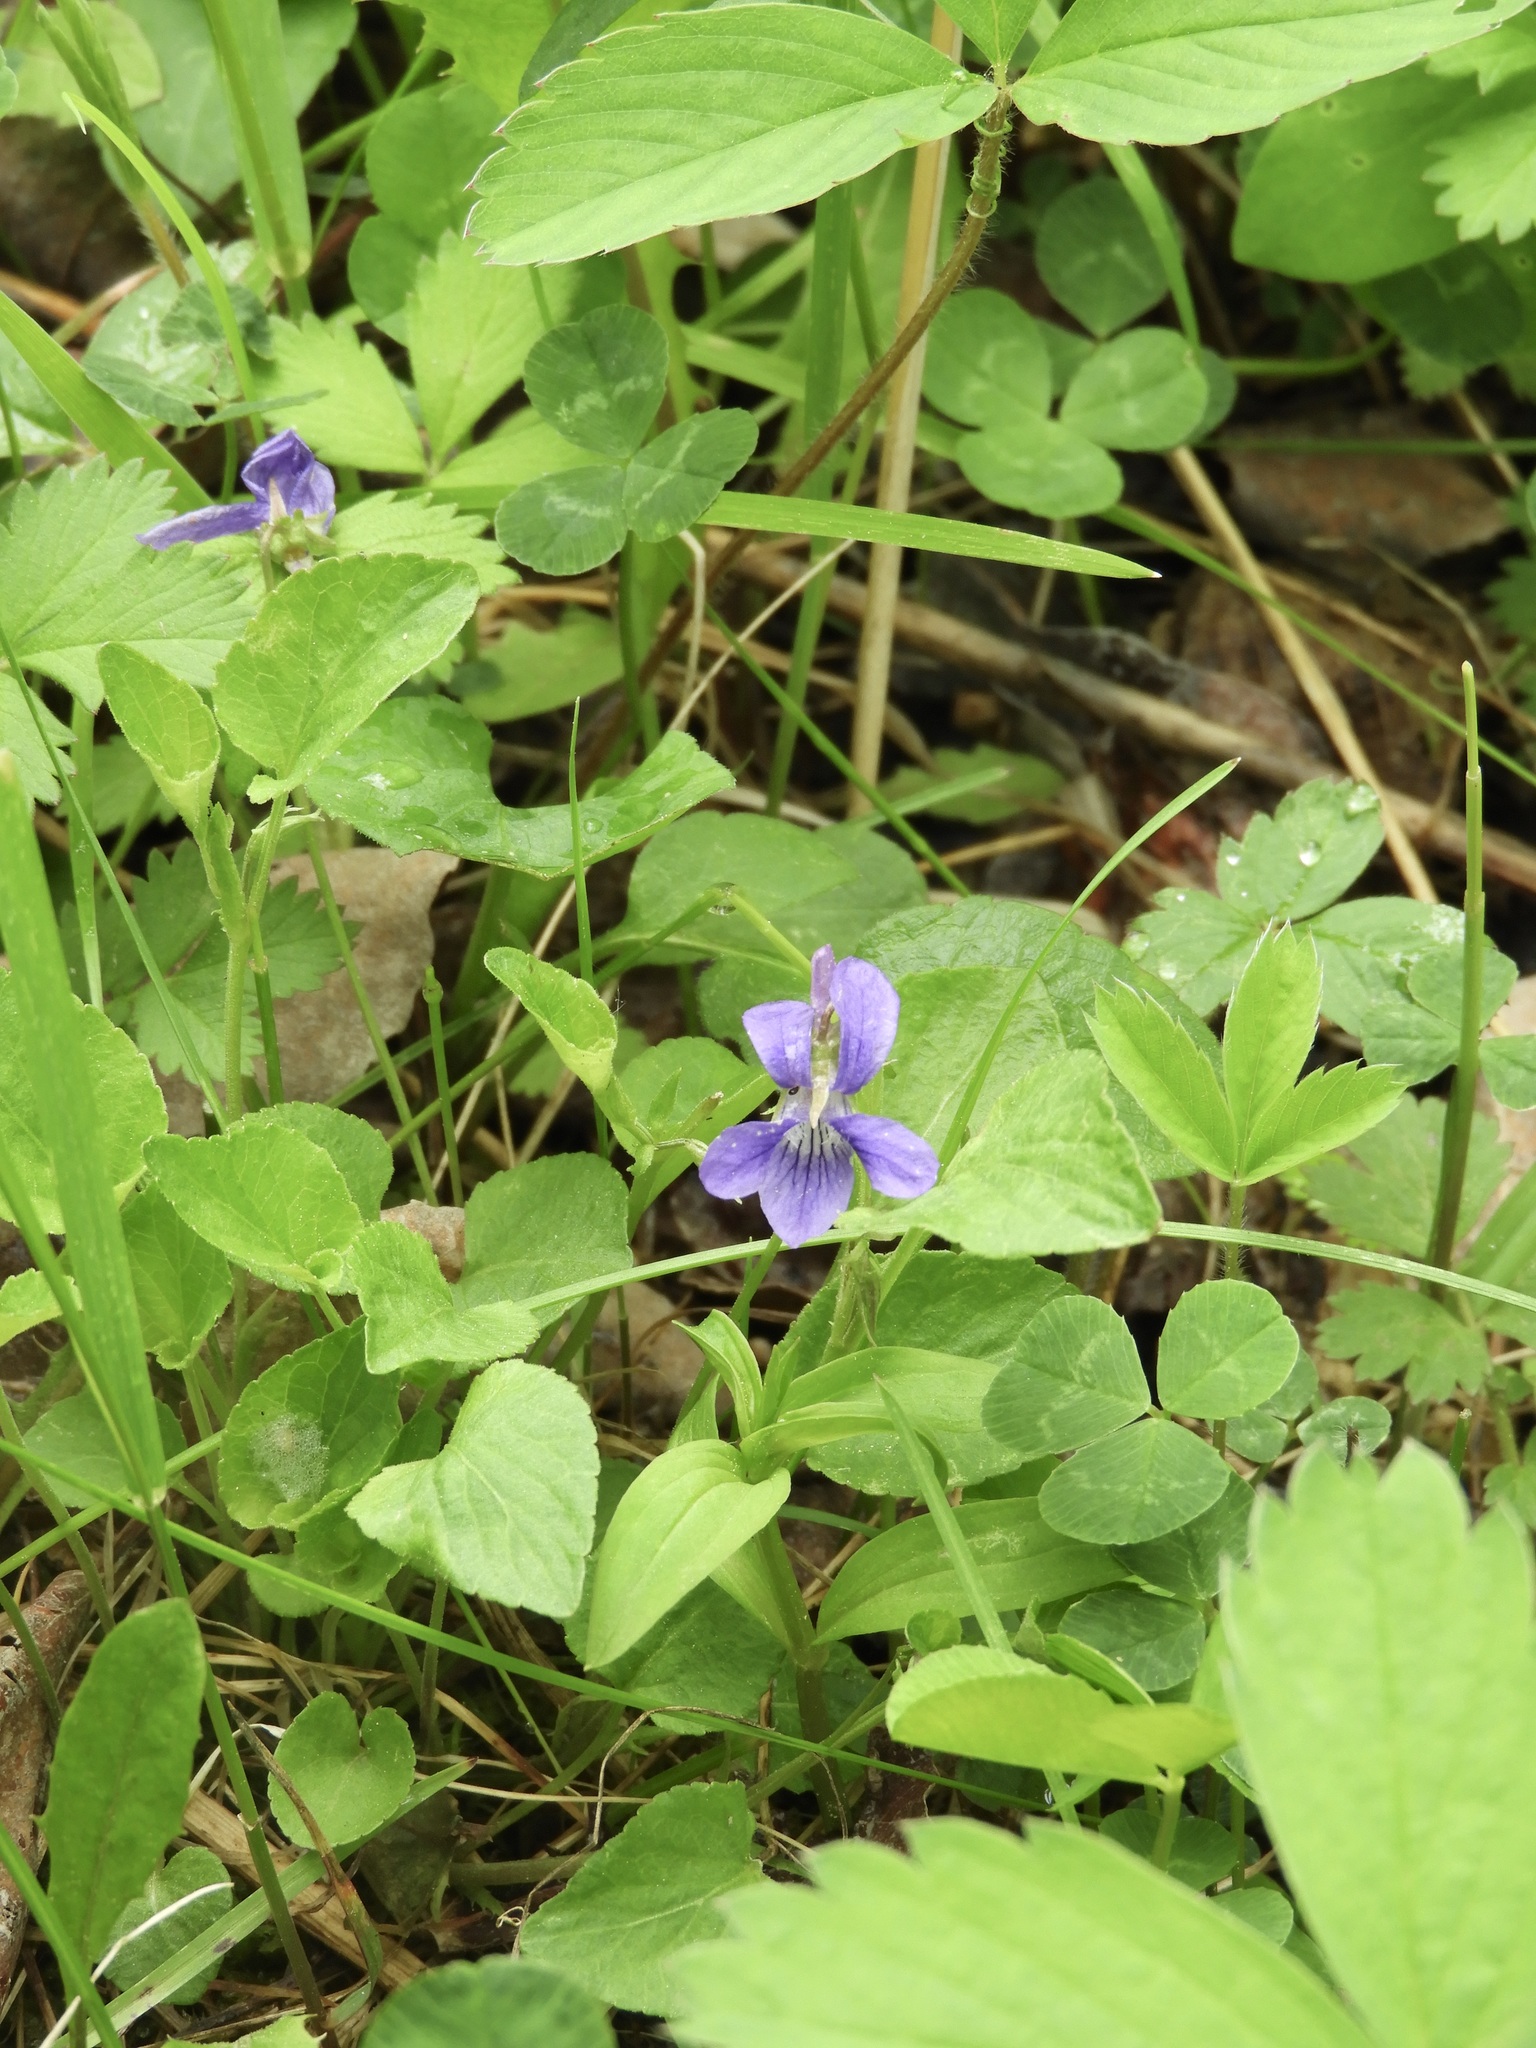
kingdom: Plantae
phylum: Tracheophyta
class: Magnoliopsida
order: Malpighiales
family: Violaceae
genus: Viola
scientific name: Viola adunca
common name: Sand violet
